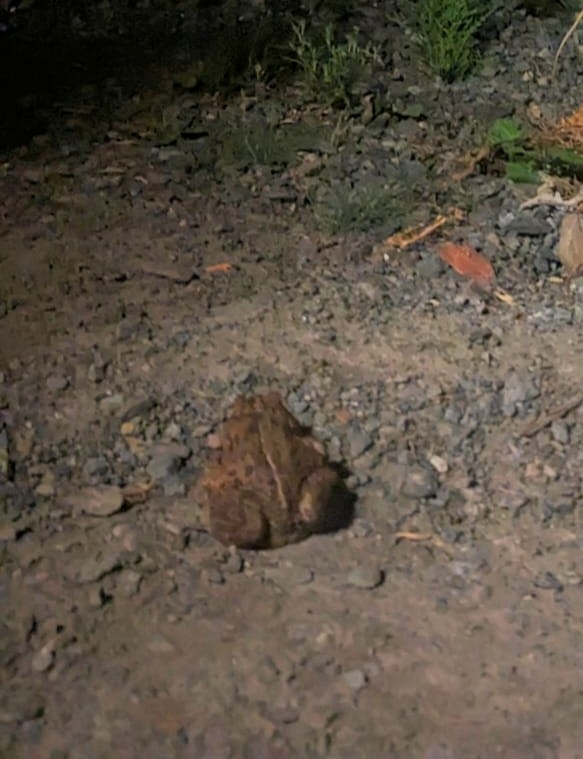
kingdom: Animalia
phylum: Chordata
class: Amphibia
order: Anura
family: Bufonidae
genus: Anaxyrus
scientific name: Anaxyrus boreas
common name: Western toad
